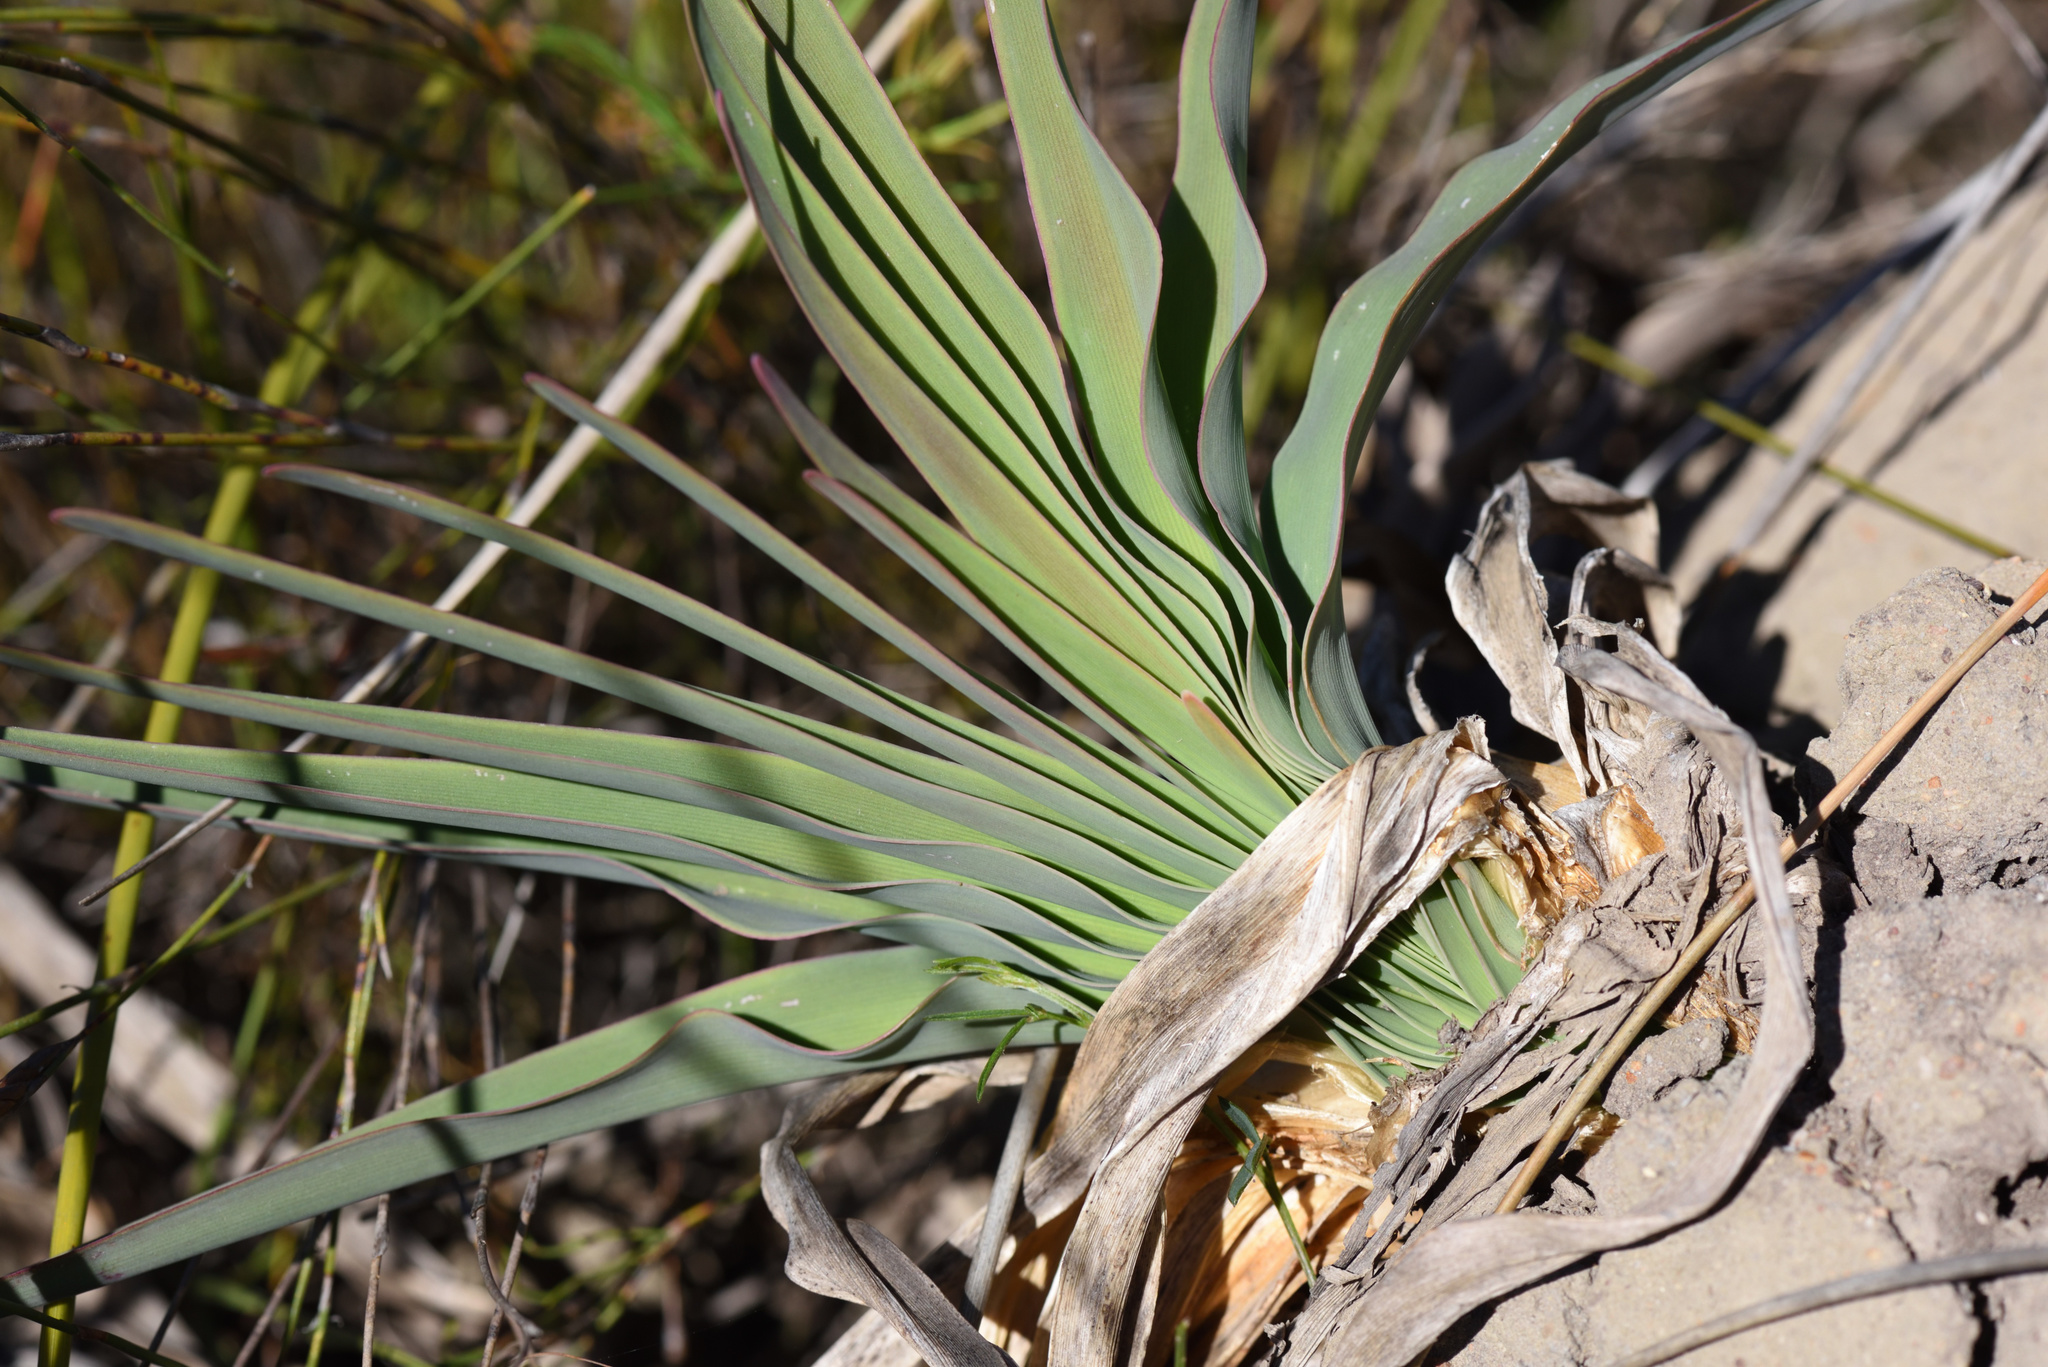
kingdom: Plantae
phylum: Tracheophyta
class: Liliopsida
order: Asparagales
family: Amaryllidaceae
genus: Boophone
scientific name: Boophone disticha
